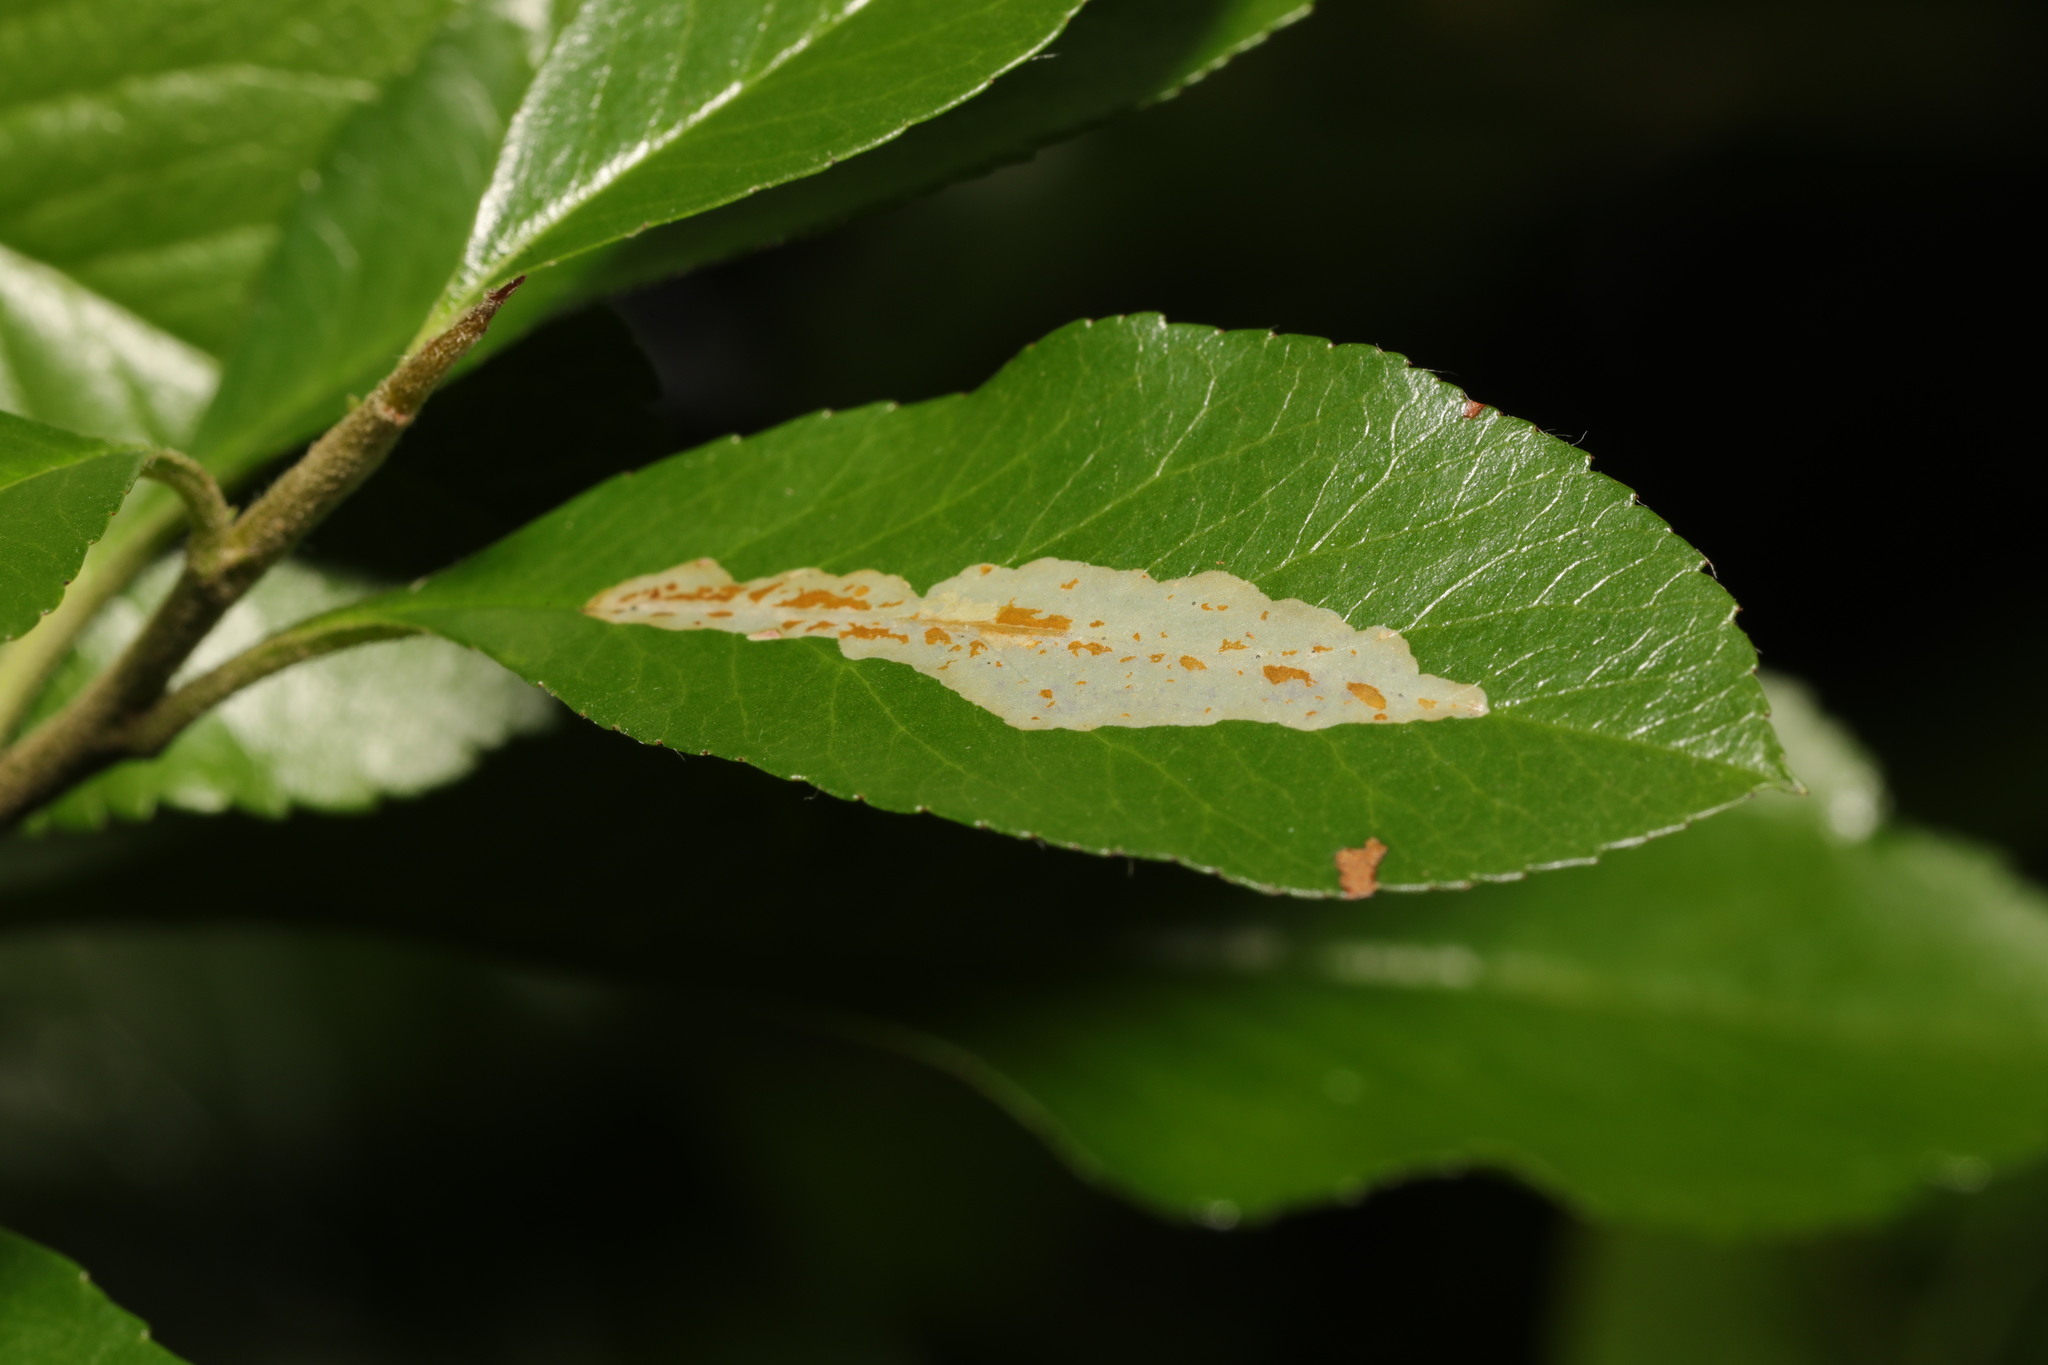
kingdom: Animalia
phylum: Arthropoda
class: Insecta
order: Lepidoptera
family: Gracillariidae
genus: Phyllonorycter
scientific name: Phyllonorycter leucographella
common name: Firethorn leaf-miner
